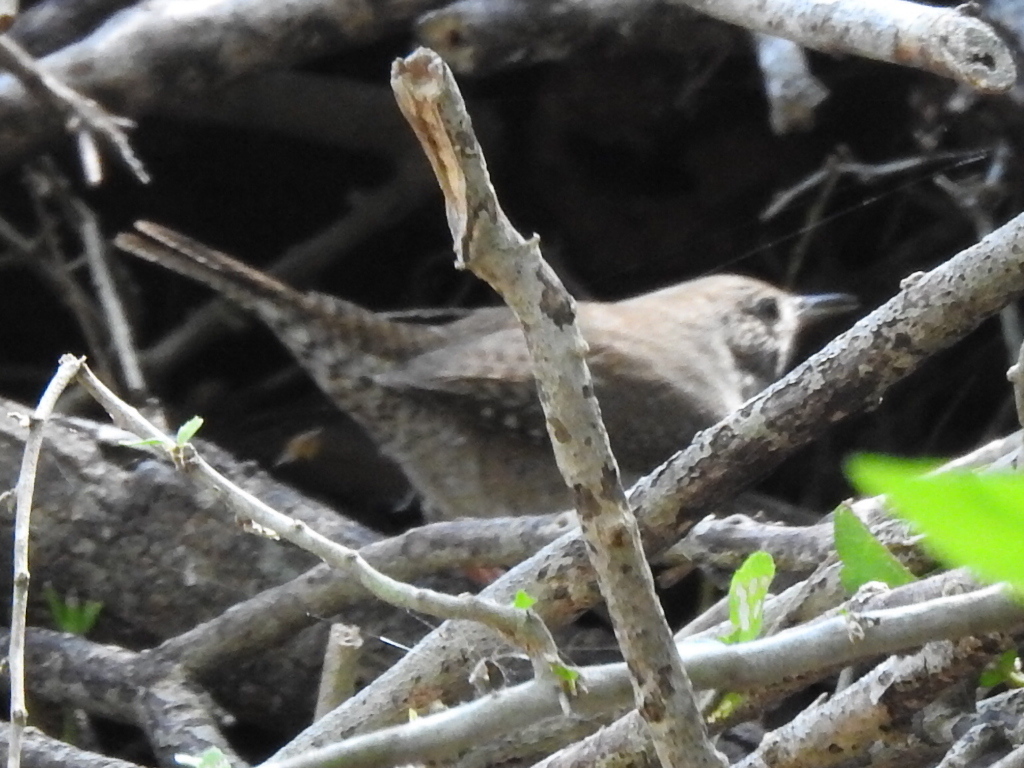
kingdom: Animalia
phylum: Chordata
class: Aves
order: Passeriformes
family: Troglodytidae
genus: Troglodytes
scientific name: Troglodytes aedon
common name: House wren
